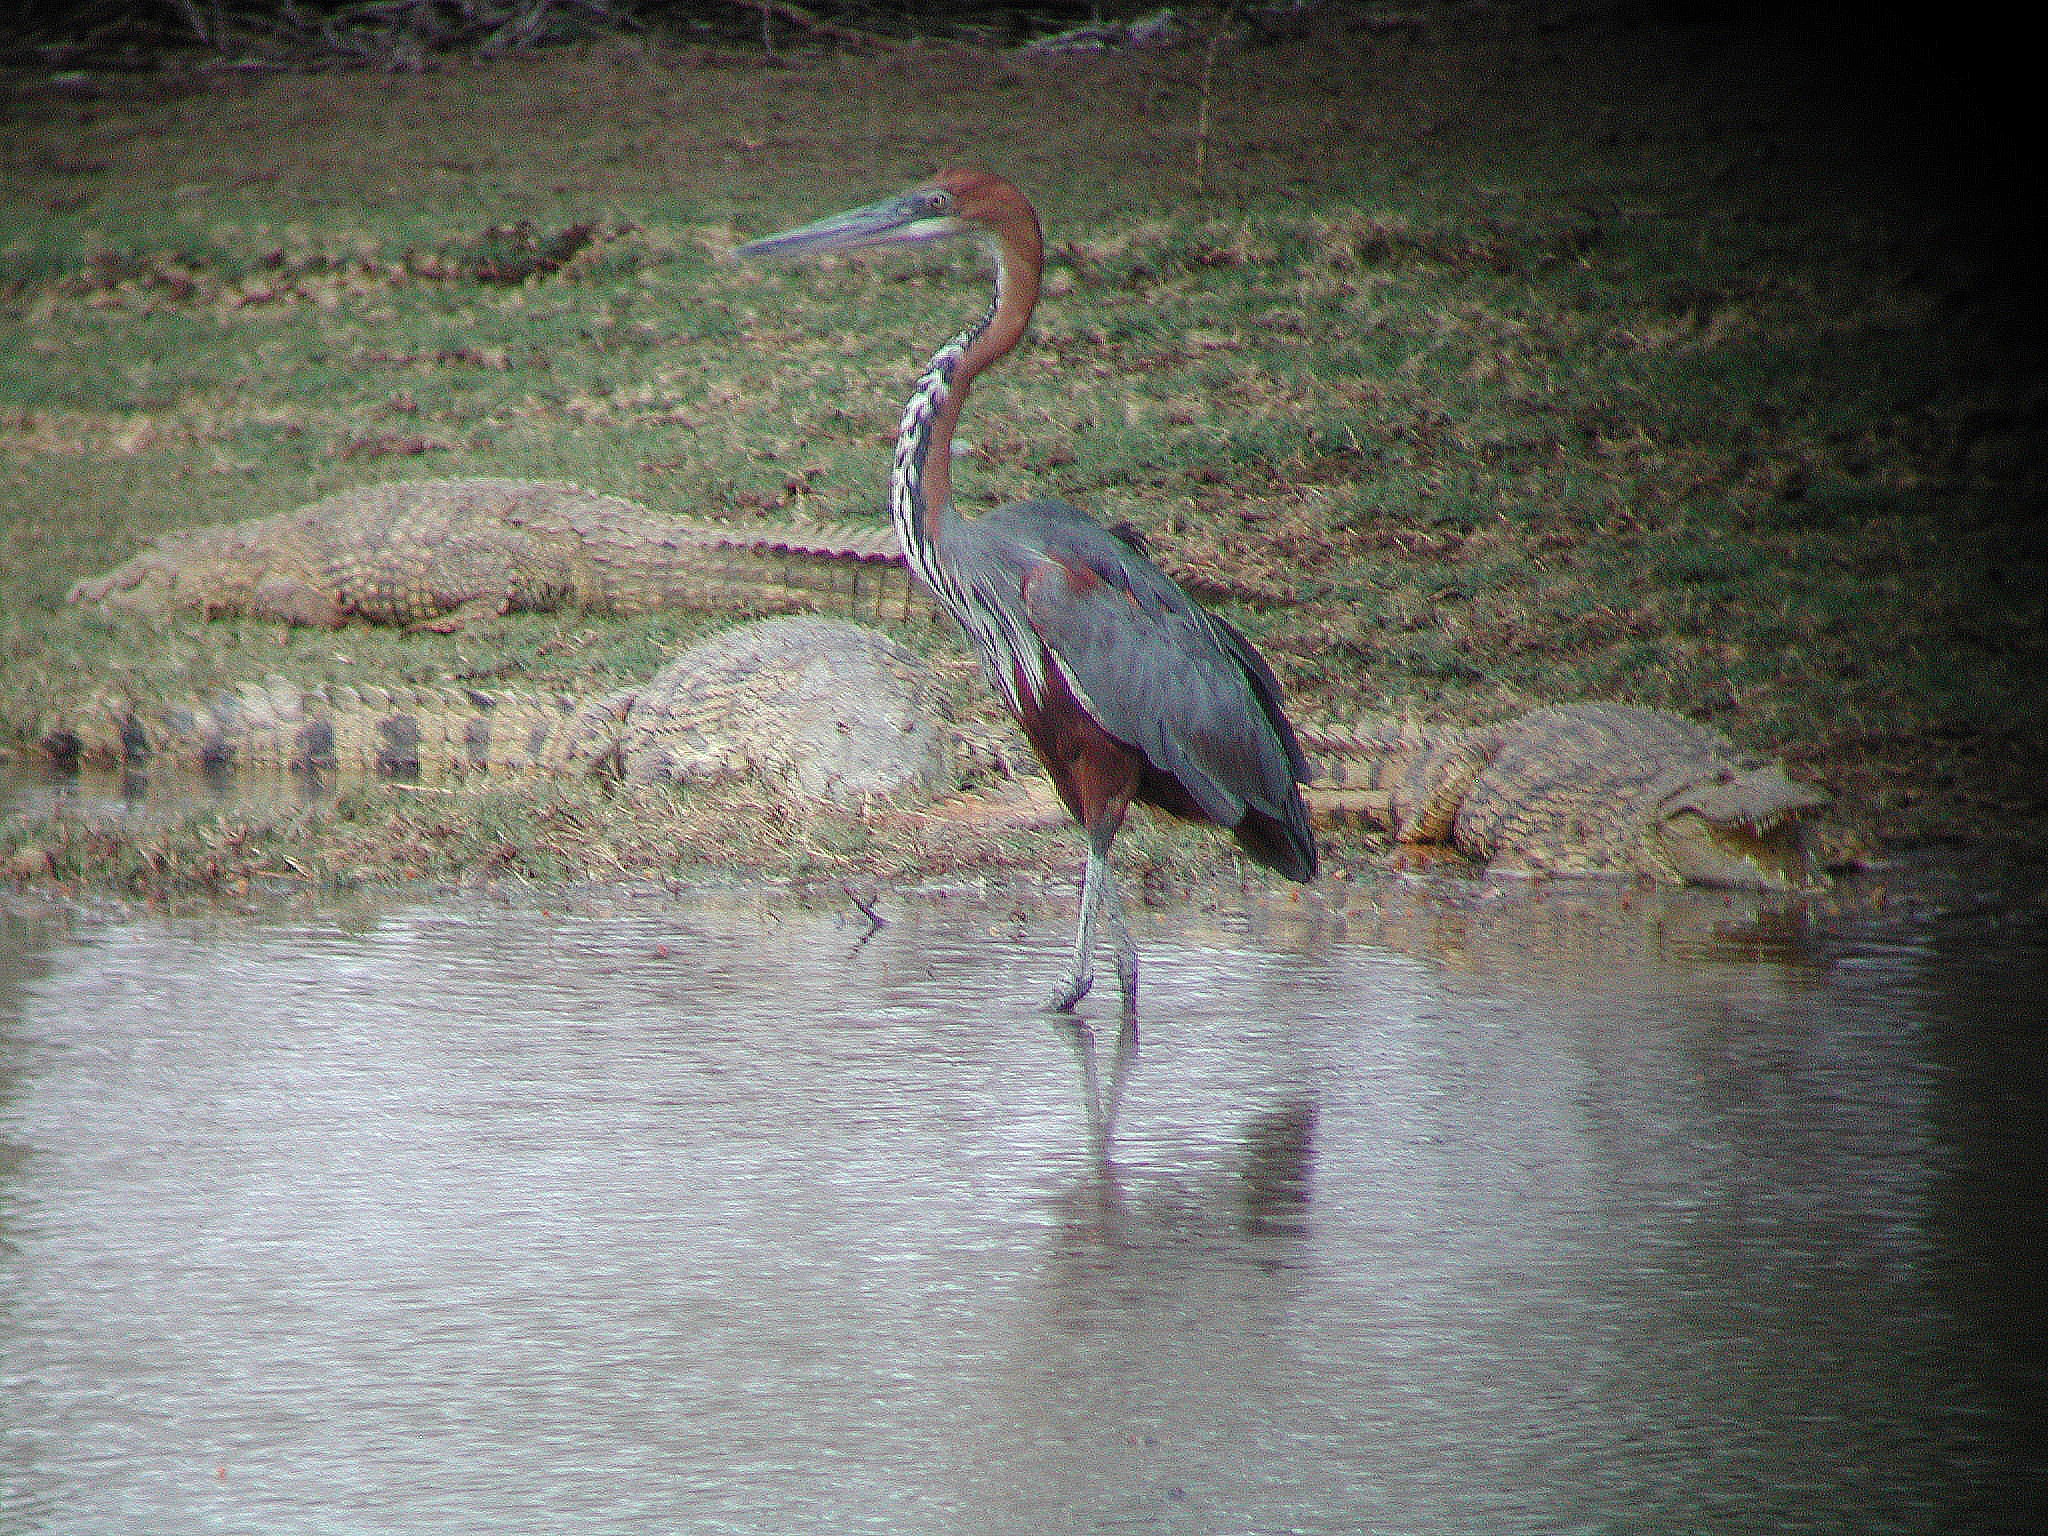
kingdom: Animalia
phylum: Chordata
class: Aves
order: Pelecaniformes
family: Ardeidae
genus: Ardea
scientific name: Ardea goliath
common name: Goliath heron
